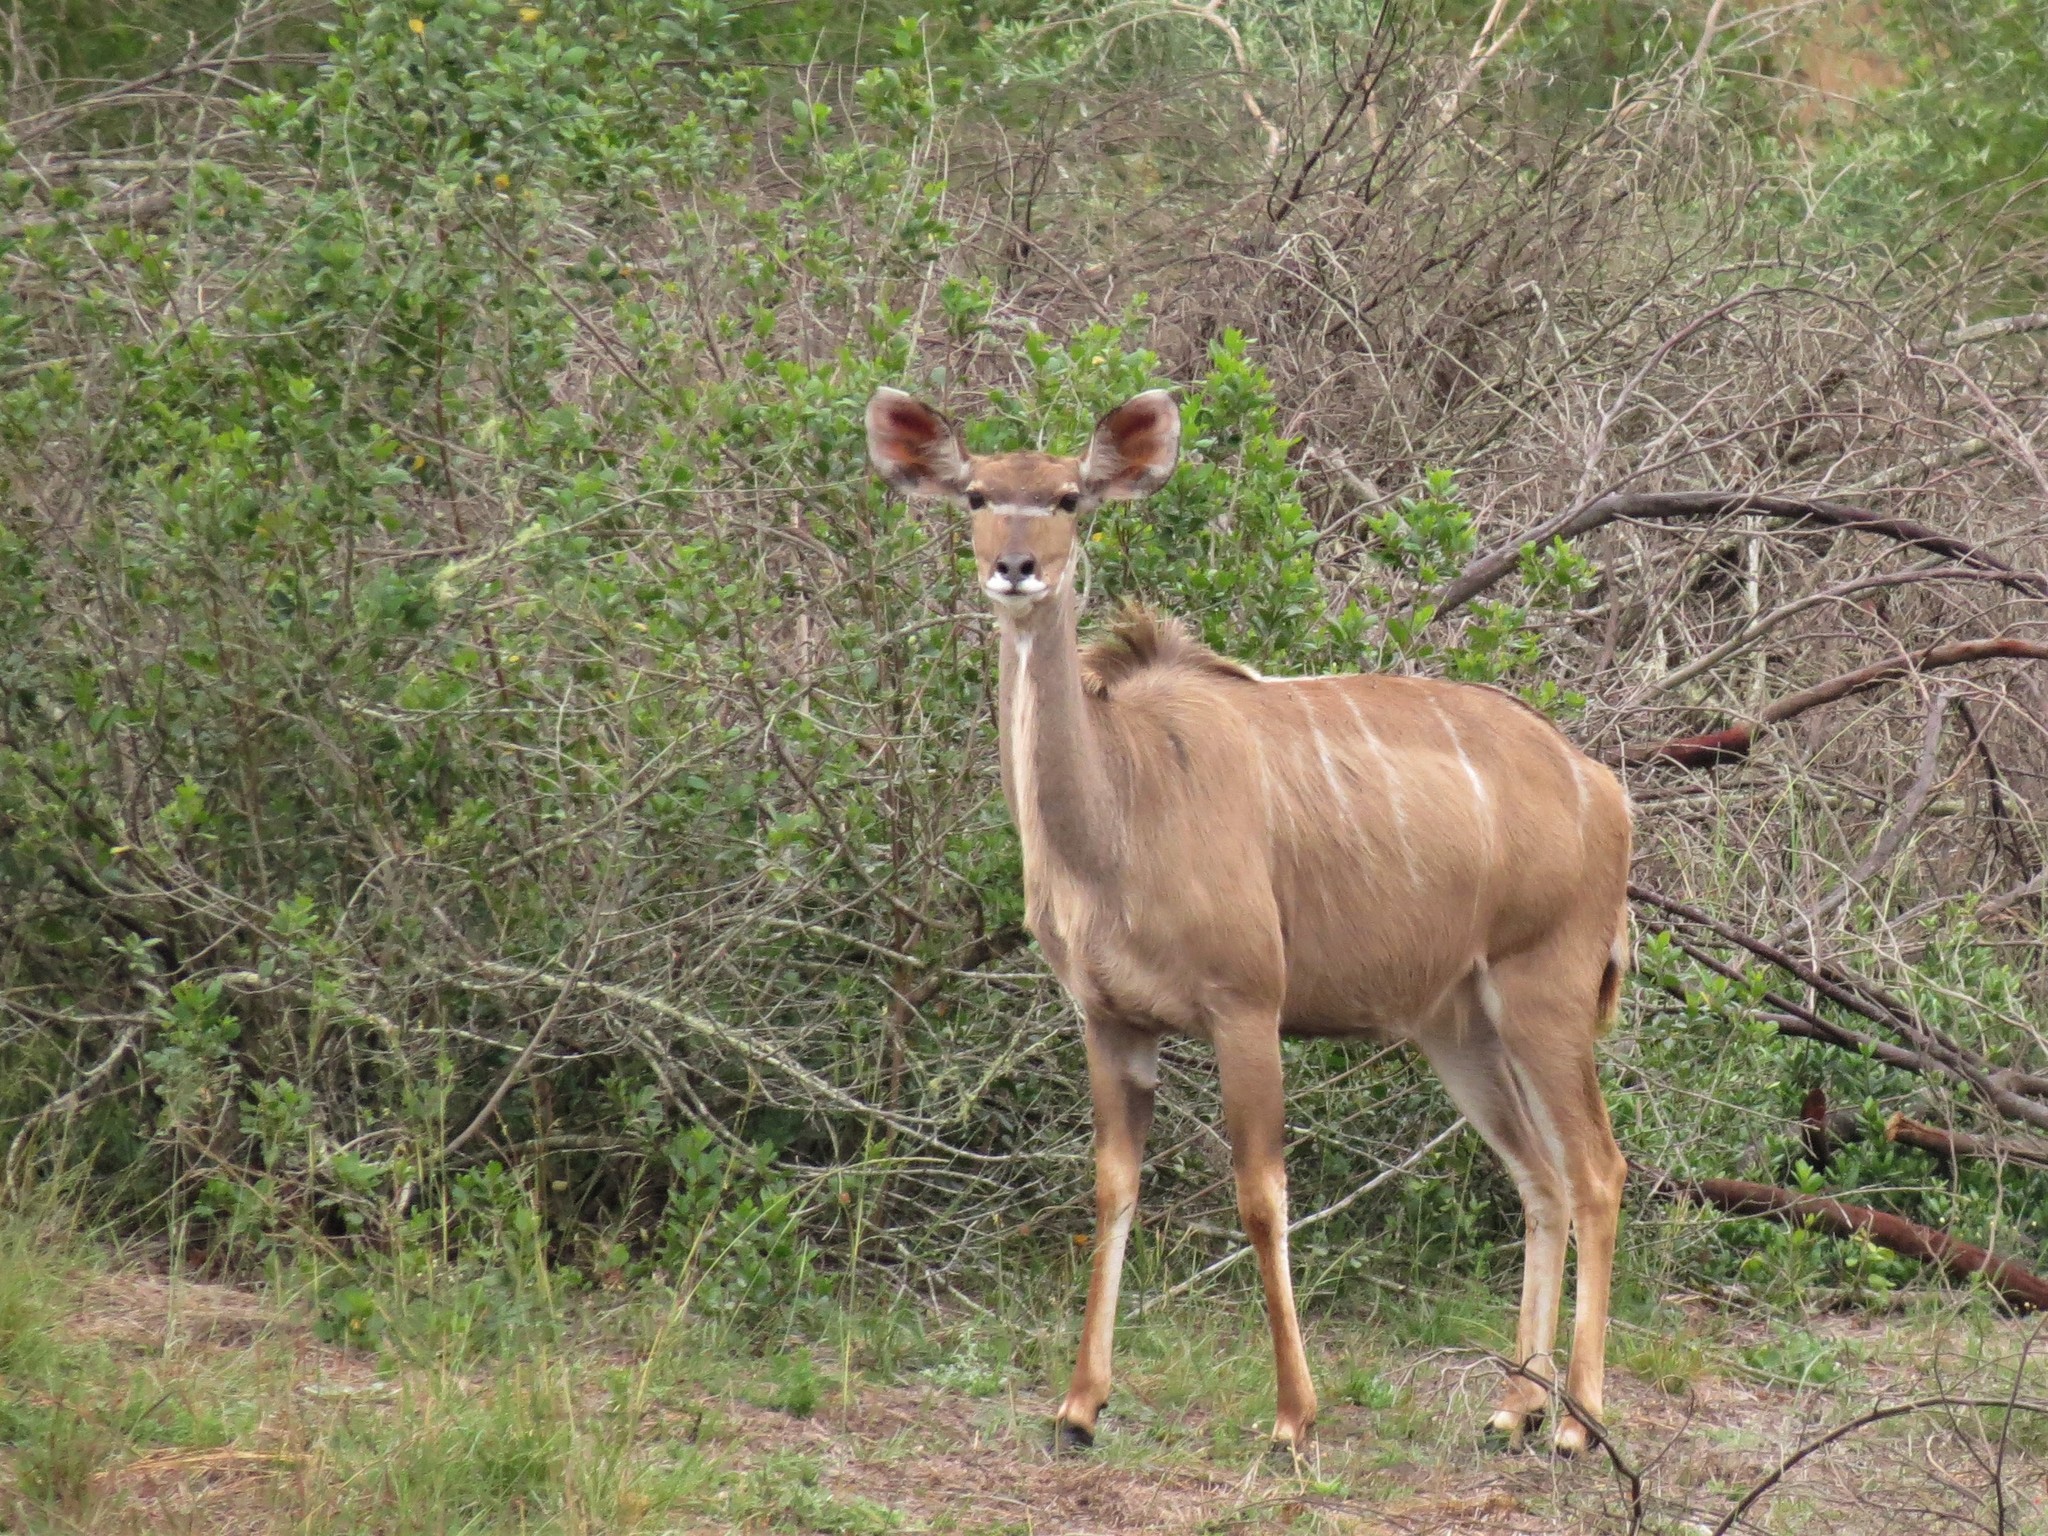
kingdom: Animalia
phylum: Chordata
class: Mammalia
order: Artiodactyla
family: Bovidae
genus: Tragelaphus
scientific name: Tragelaphus strepsiceros
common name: Greater kudu
